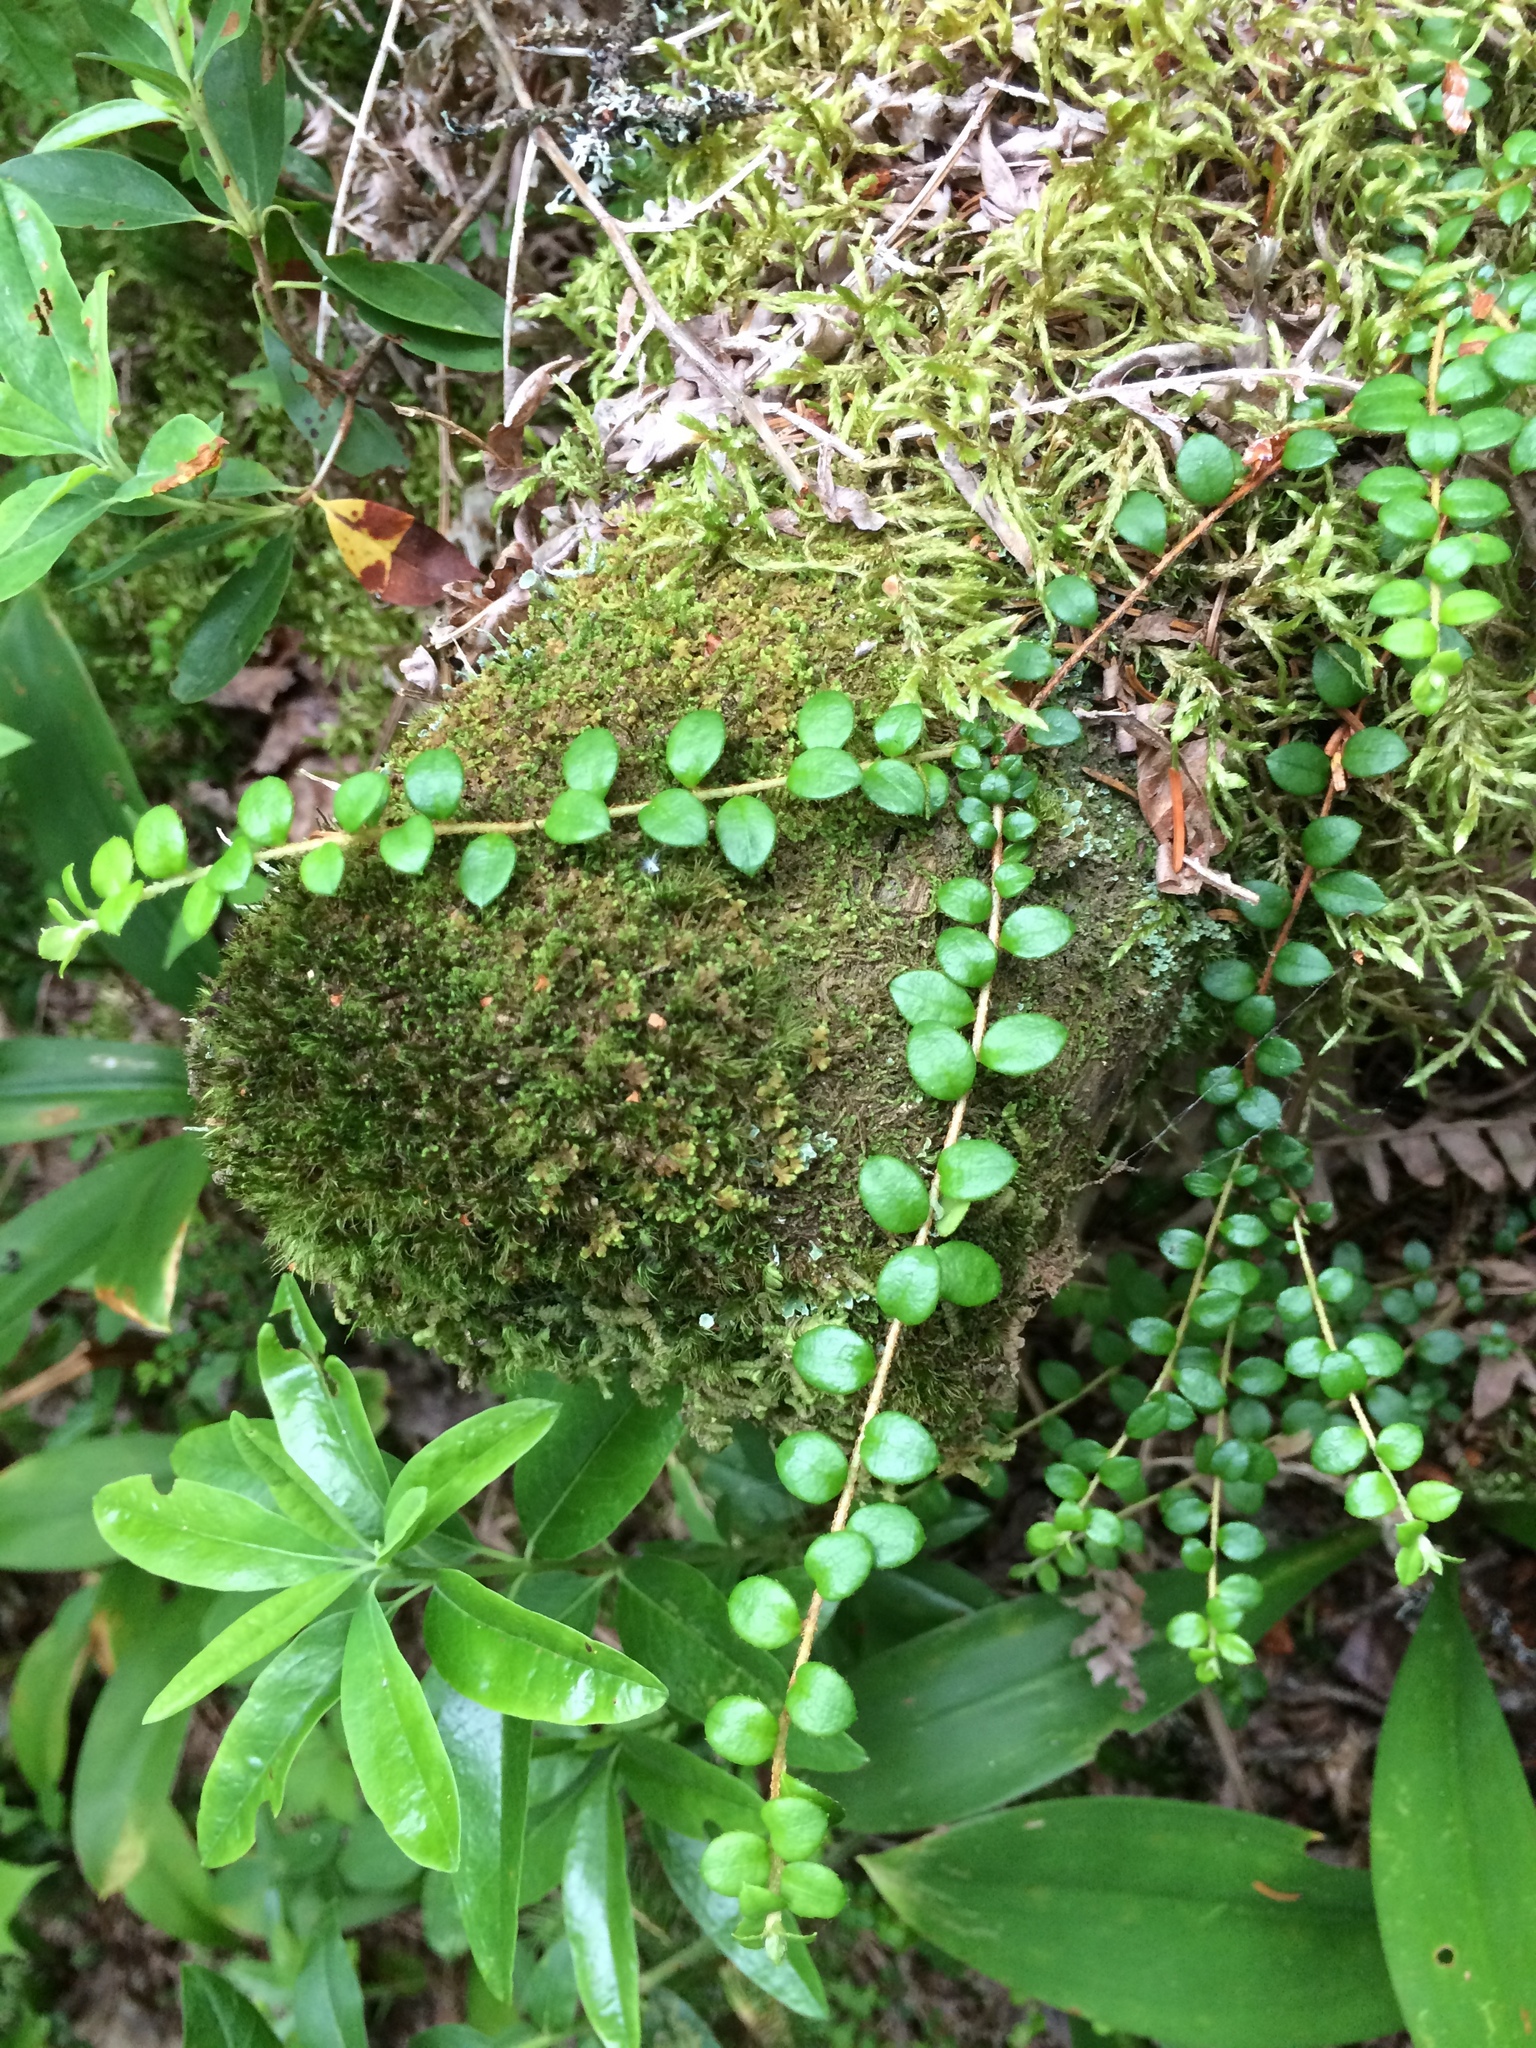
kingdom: Plantae
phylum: Tracheophyta
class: Magnoliopsida
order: Ericales
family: Ericaceae
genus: Gaultheria
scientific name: Gaultheria hispidula
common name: Cancer wintergreen
